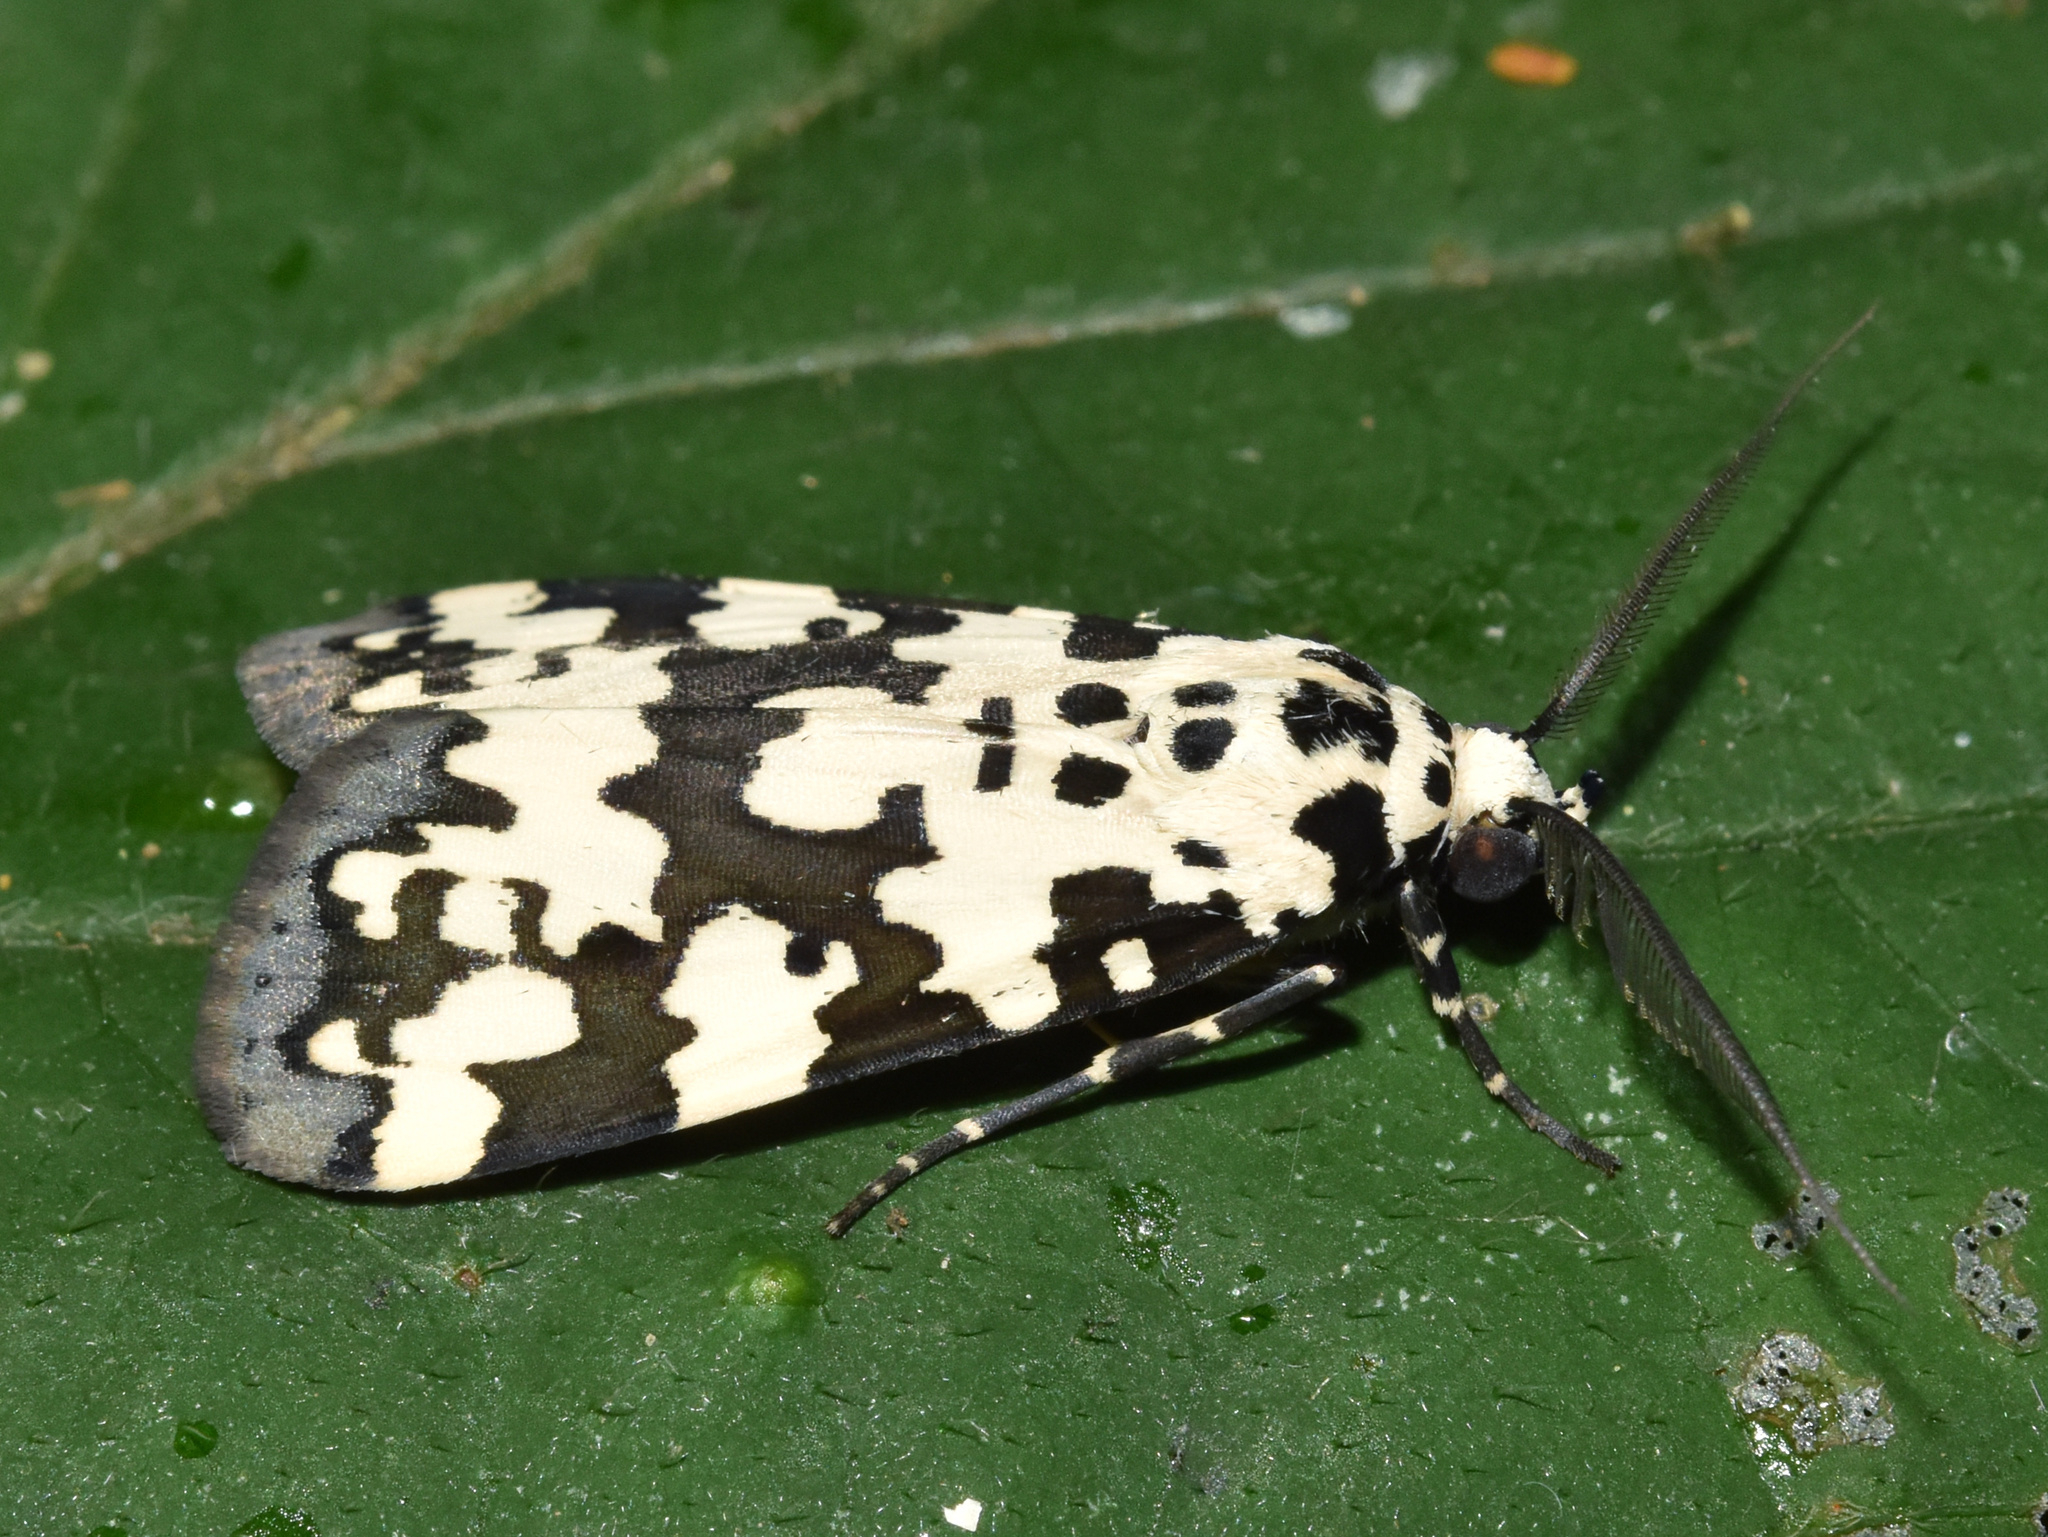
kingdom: Animalia
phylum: Arthropoda
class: Insecta
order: Lepidoptera
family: Erebidae
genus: Digama
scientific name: Digama spilosoma
